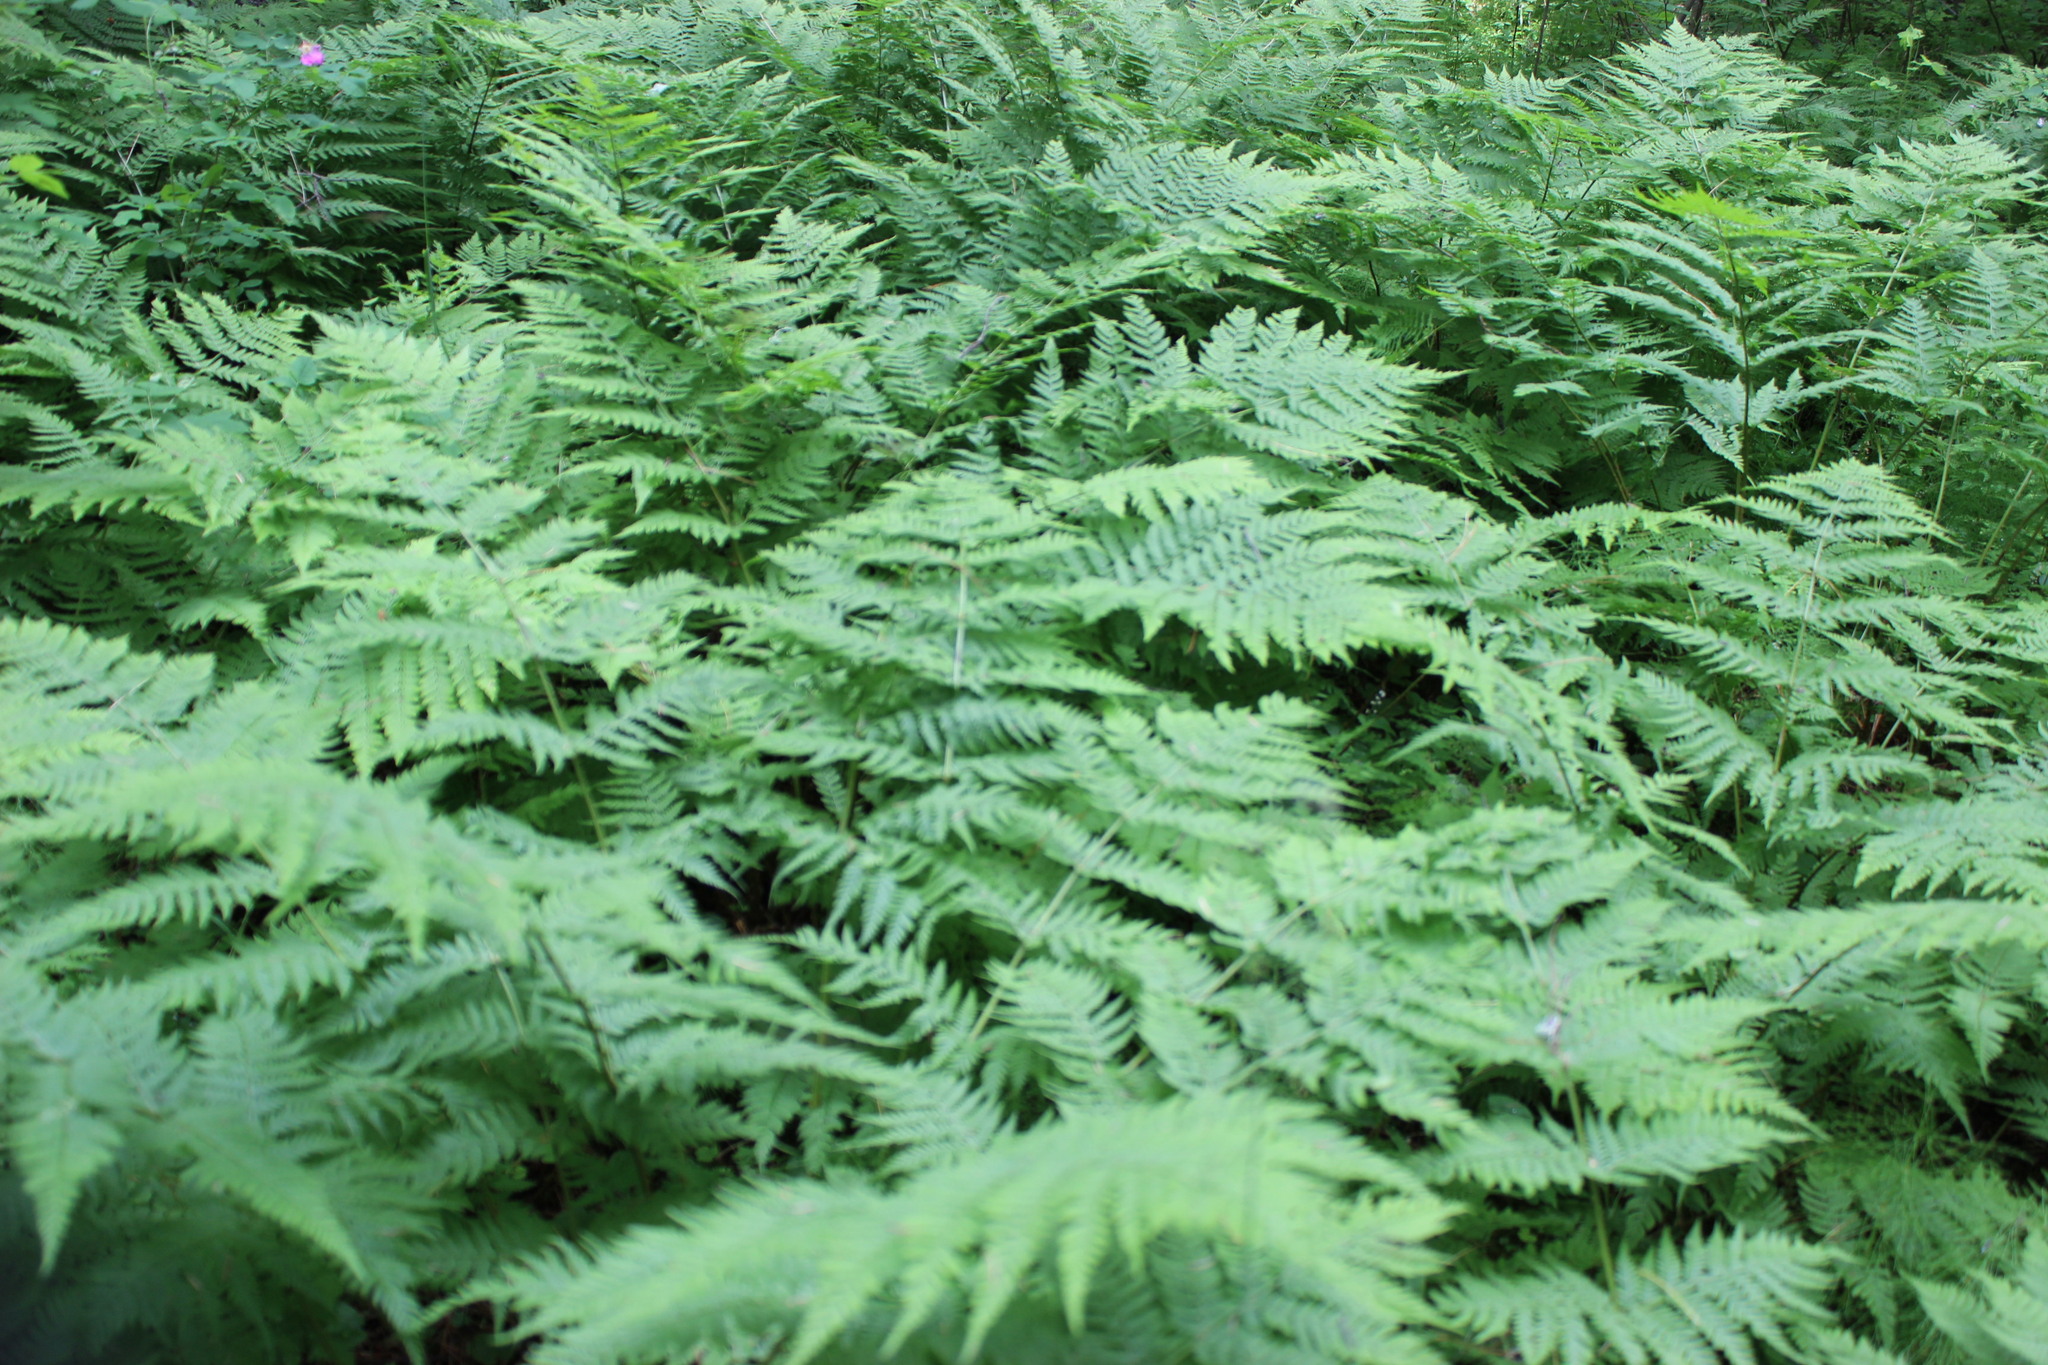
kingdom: Plantae
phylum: Tracheophyta
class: Polypodiopsida
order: Polypodiales
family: Dryopteridaceae
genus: Dryopteris
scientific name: Dryopteris expansa
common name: Northern buckler fern
